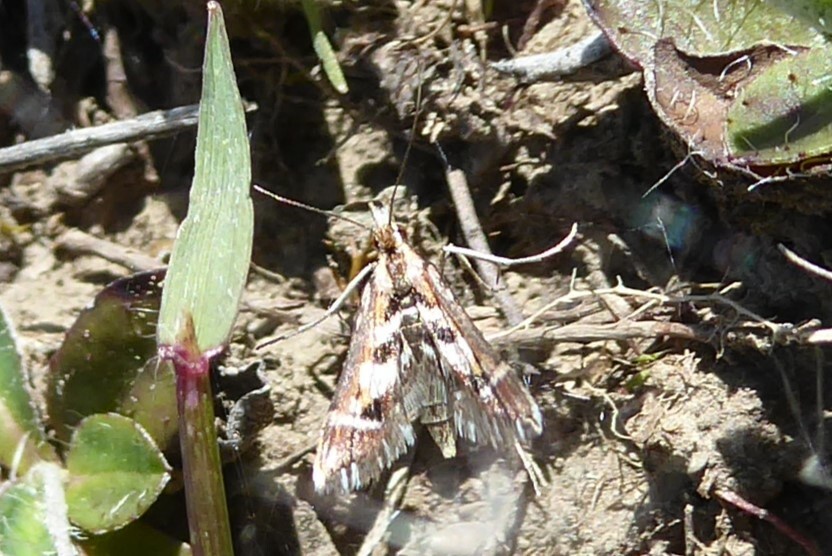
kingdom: Animalia
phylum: Arthropoda
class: Insecta
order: Lepidoptera
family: Crambidae
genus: Diasemia
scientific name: Diasemia grammalis
